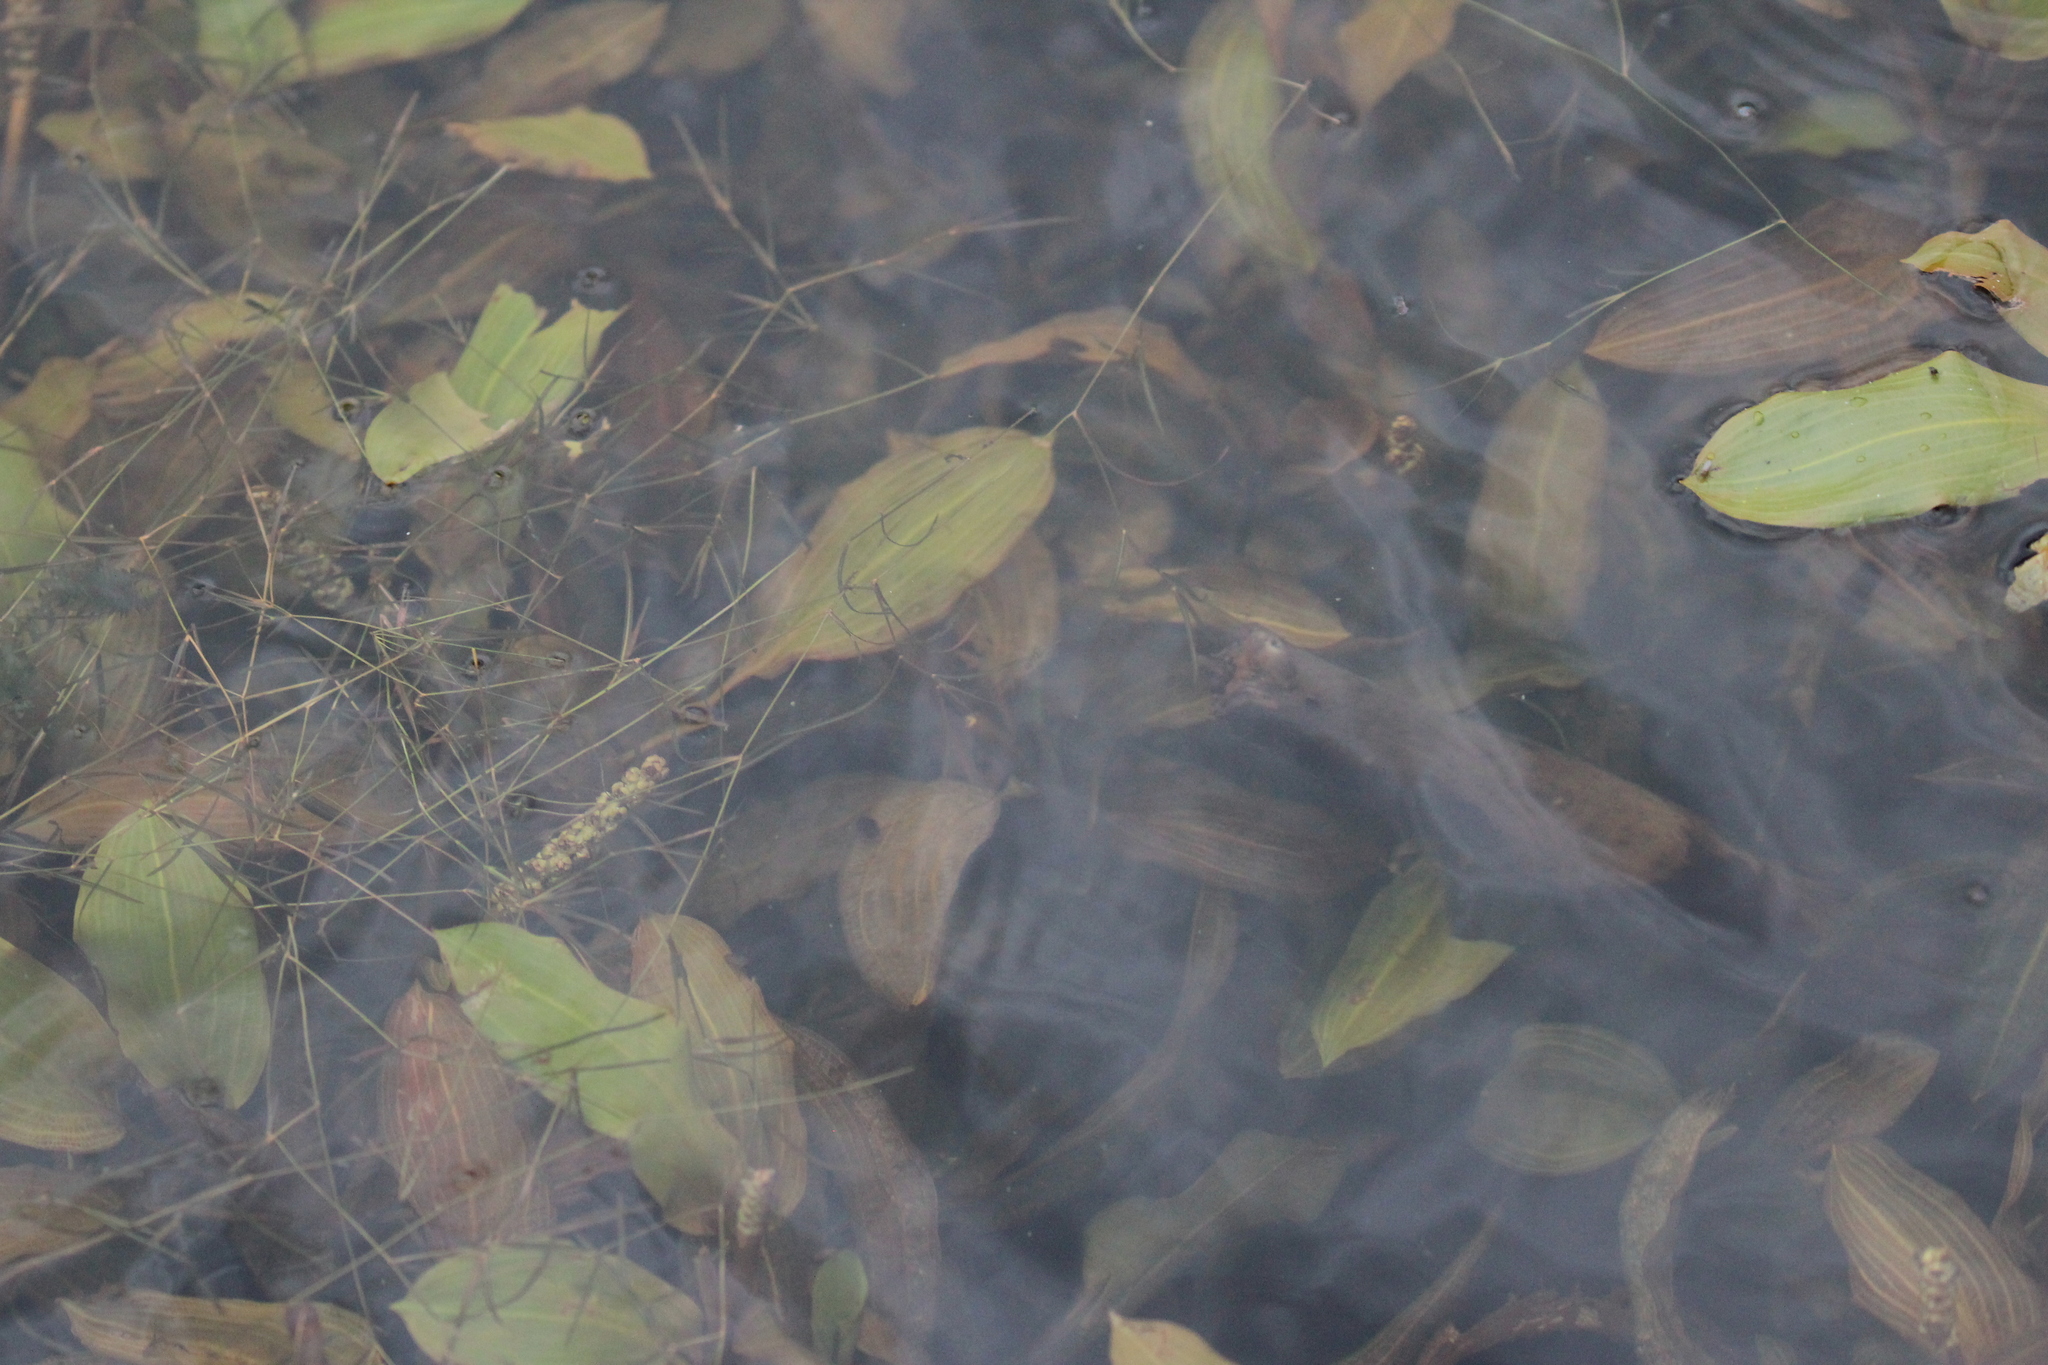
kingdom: Plantae
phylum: Tracheophyta
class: Liliopsida
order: Alismatales
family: Potamogetonaceae
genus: Potamogeton
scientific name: Potamogeton natans
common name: Broad-leaved pondweed
